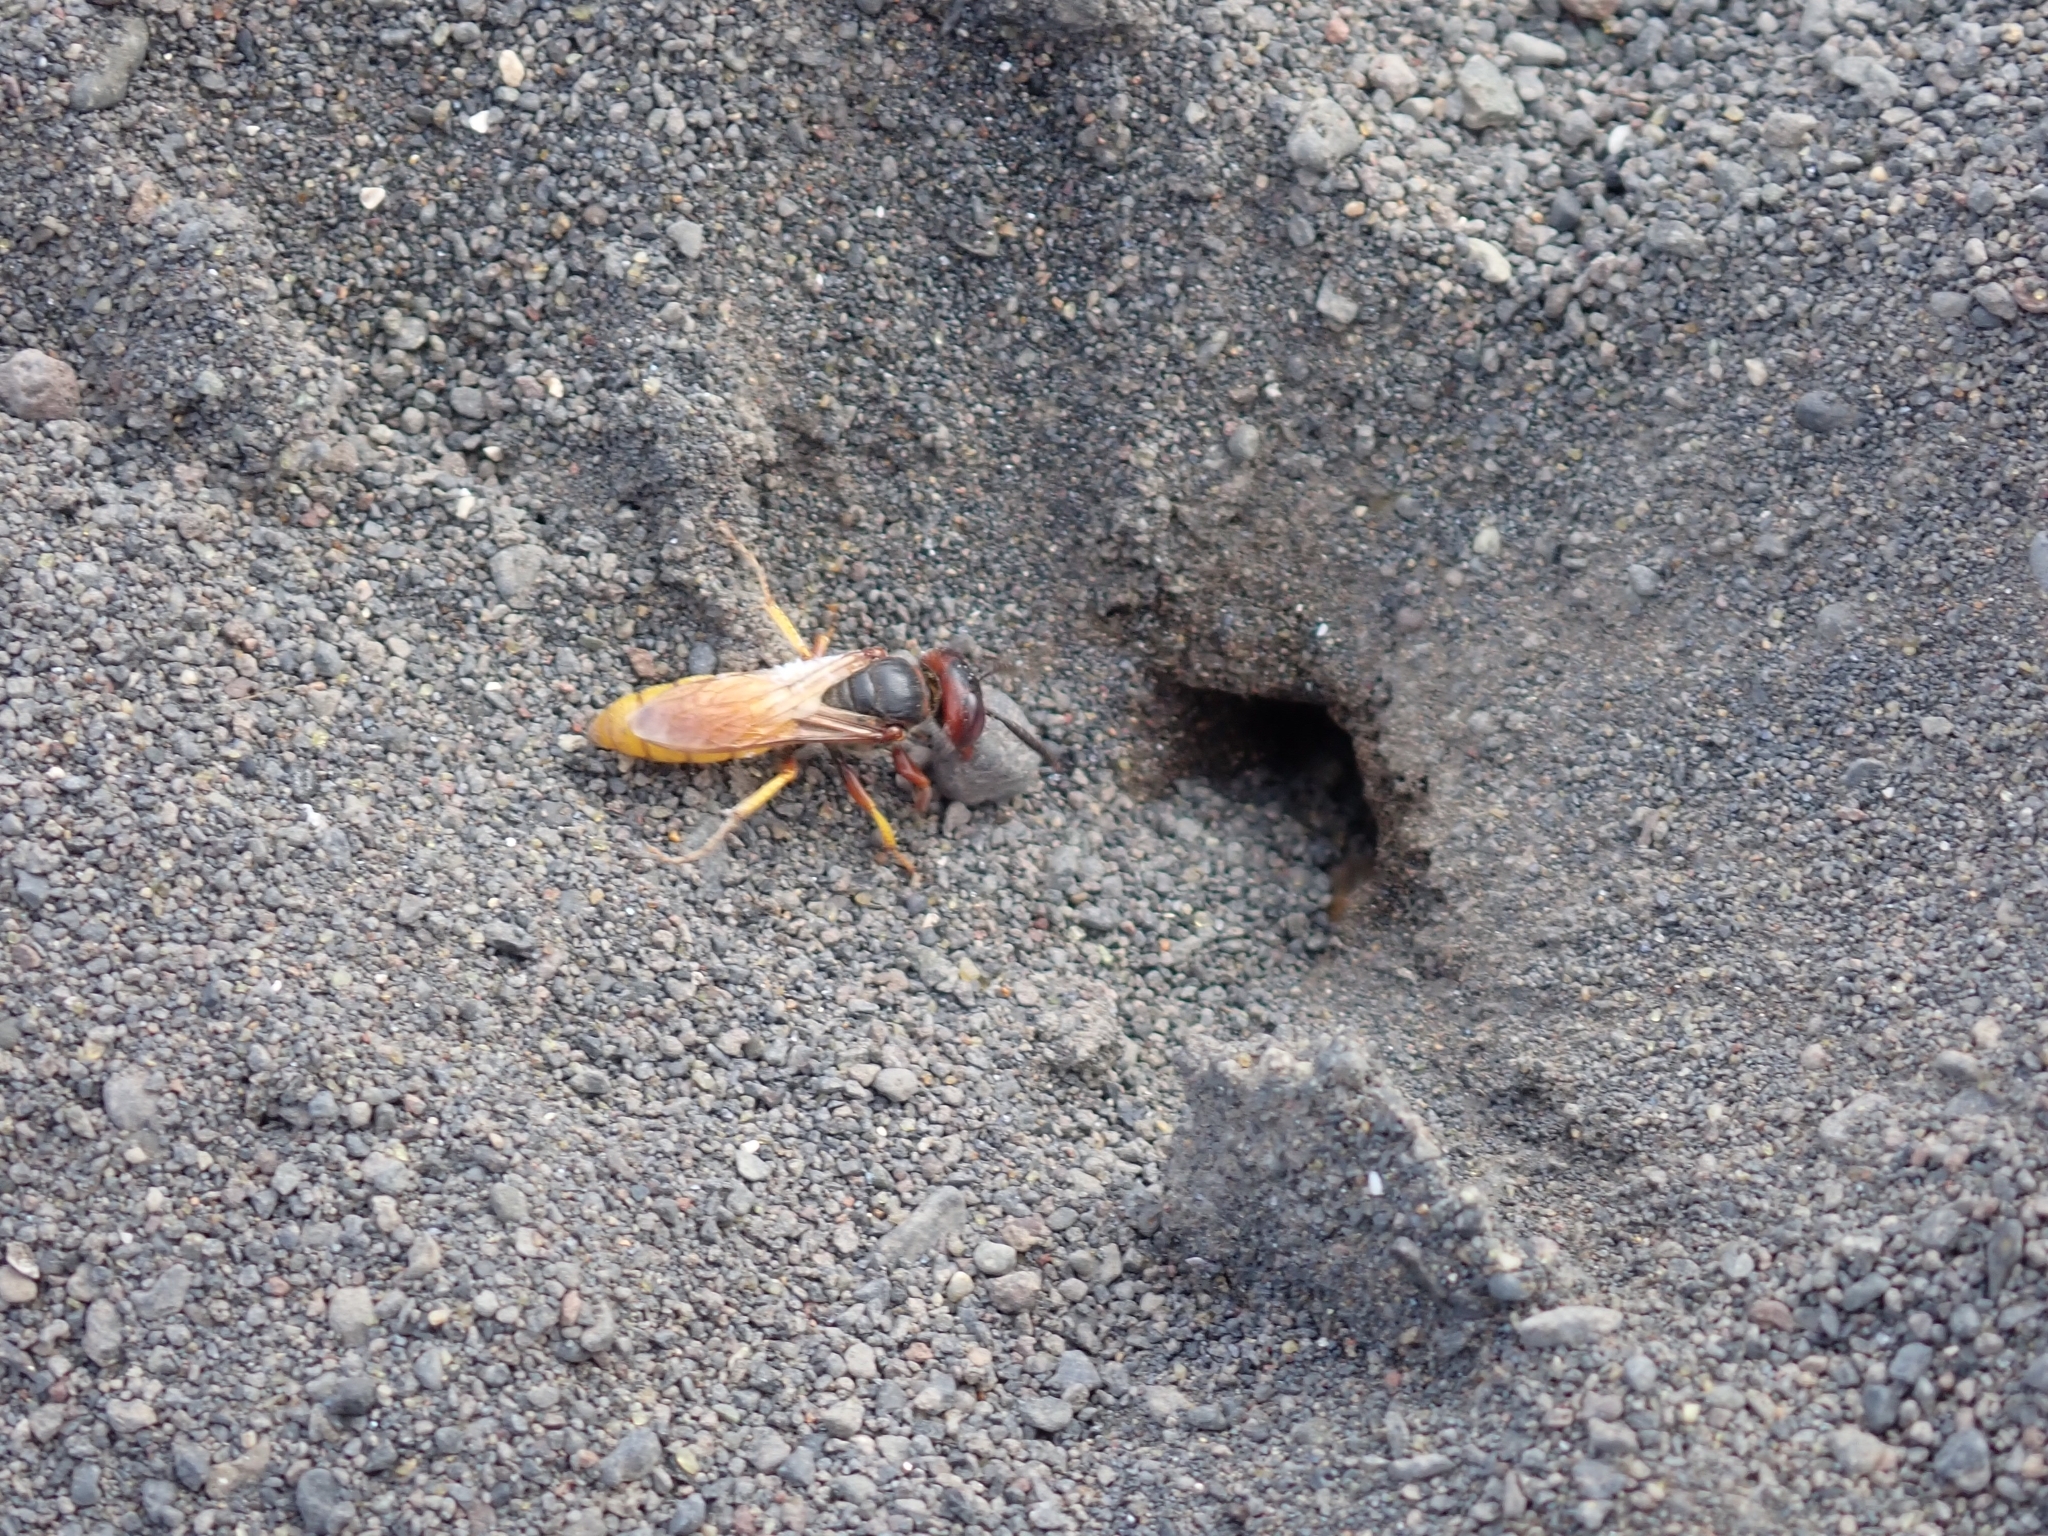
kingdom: Animalia
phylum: Arthropoda
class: Insecta
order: Hymenoptera
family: Crabronidae
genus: Philanthus
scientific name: Philanthus triangulum
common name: Bee wolf
